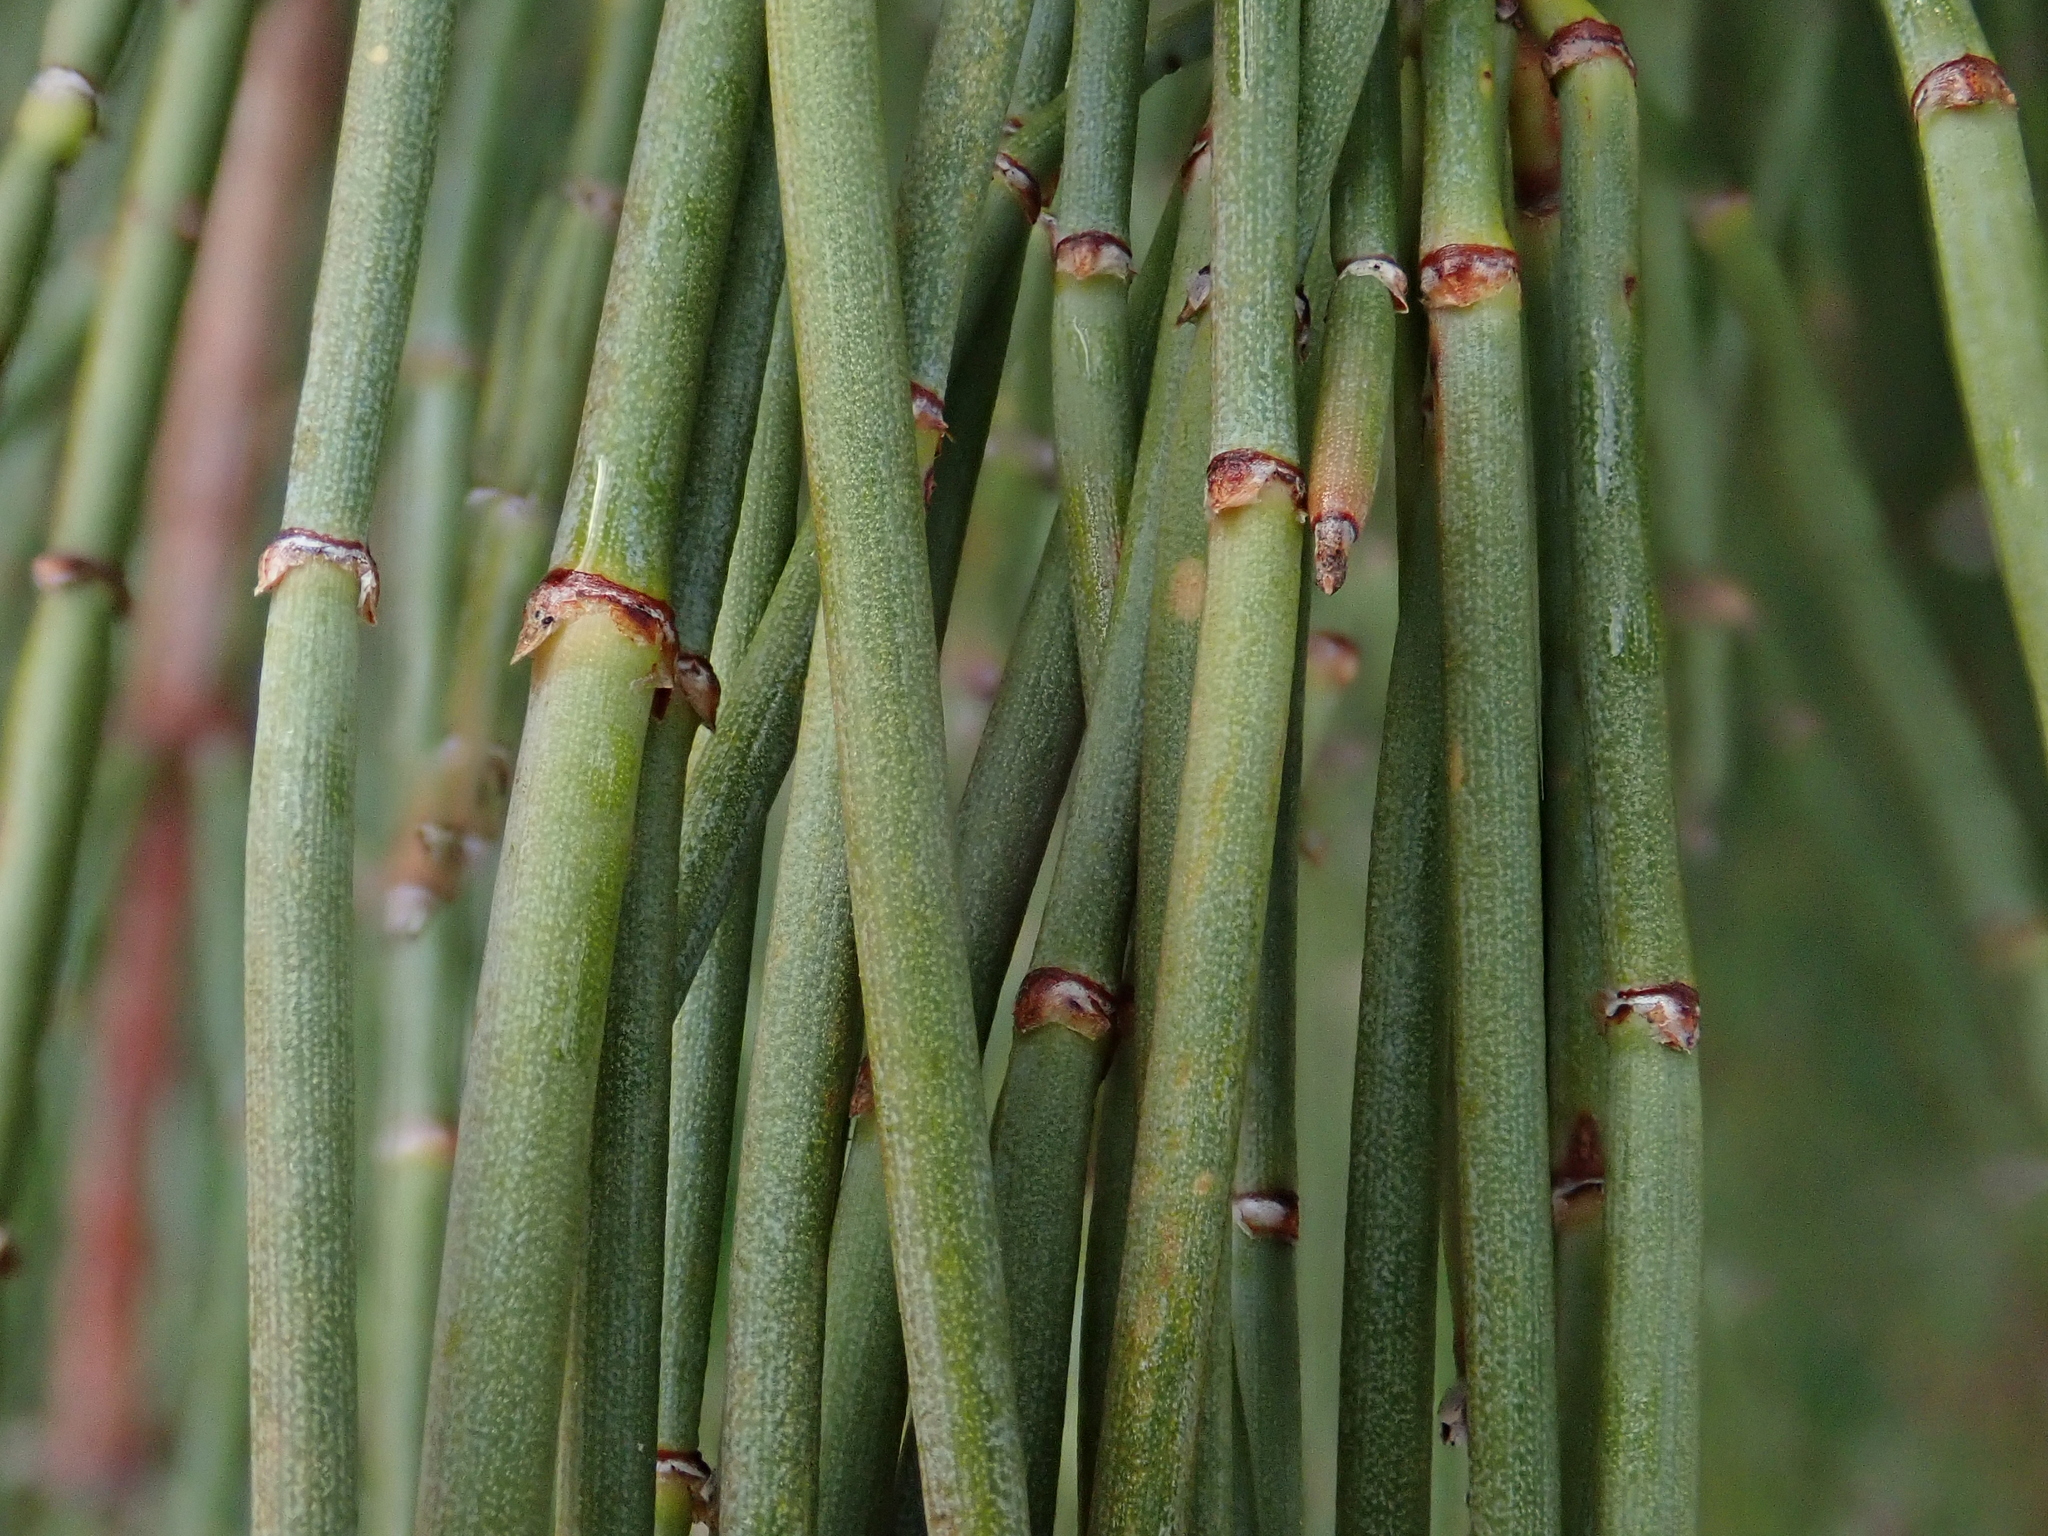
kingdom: Plantae
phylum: Tracheophyta
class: Gnetopsida
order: Ephedrales
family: Ephedraceae
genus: Ephedra
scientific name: Ephedra fragilis
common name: Joint pine
